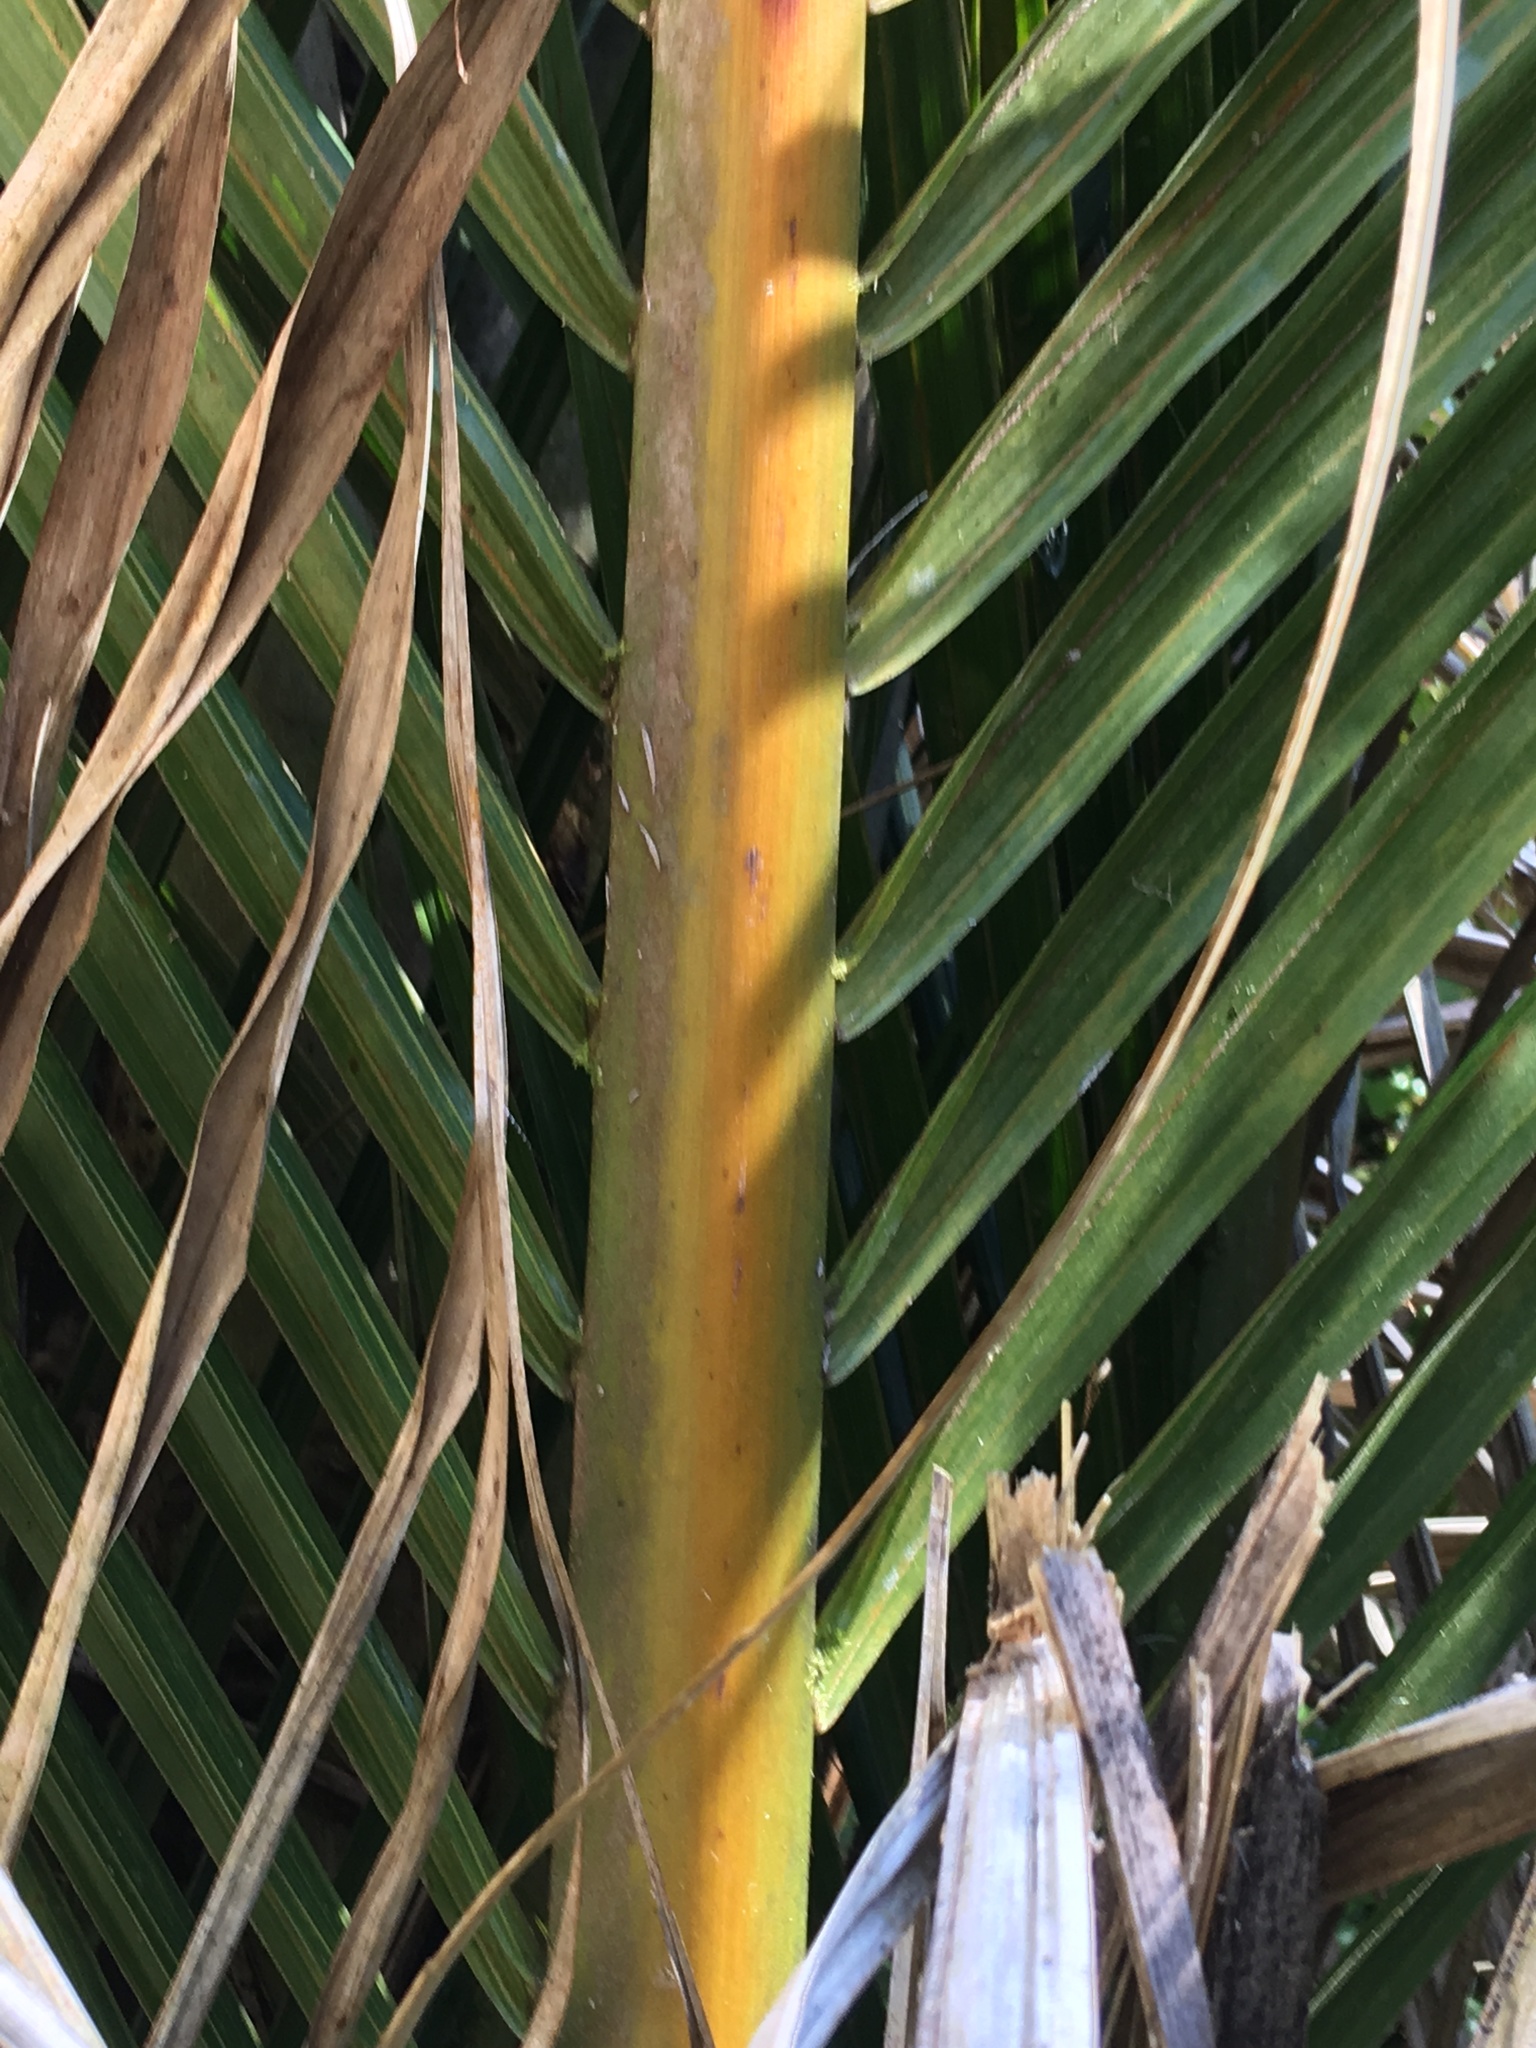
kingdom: Plantae
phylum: Tracheophyta
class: Liliopsida
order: Arecales
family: Arecaceae
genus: Rhopalostylis
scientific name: Rhopalostylis sapida
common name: Feather-duster palm
